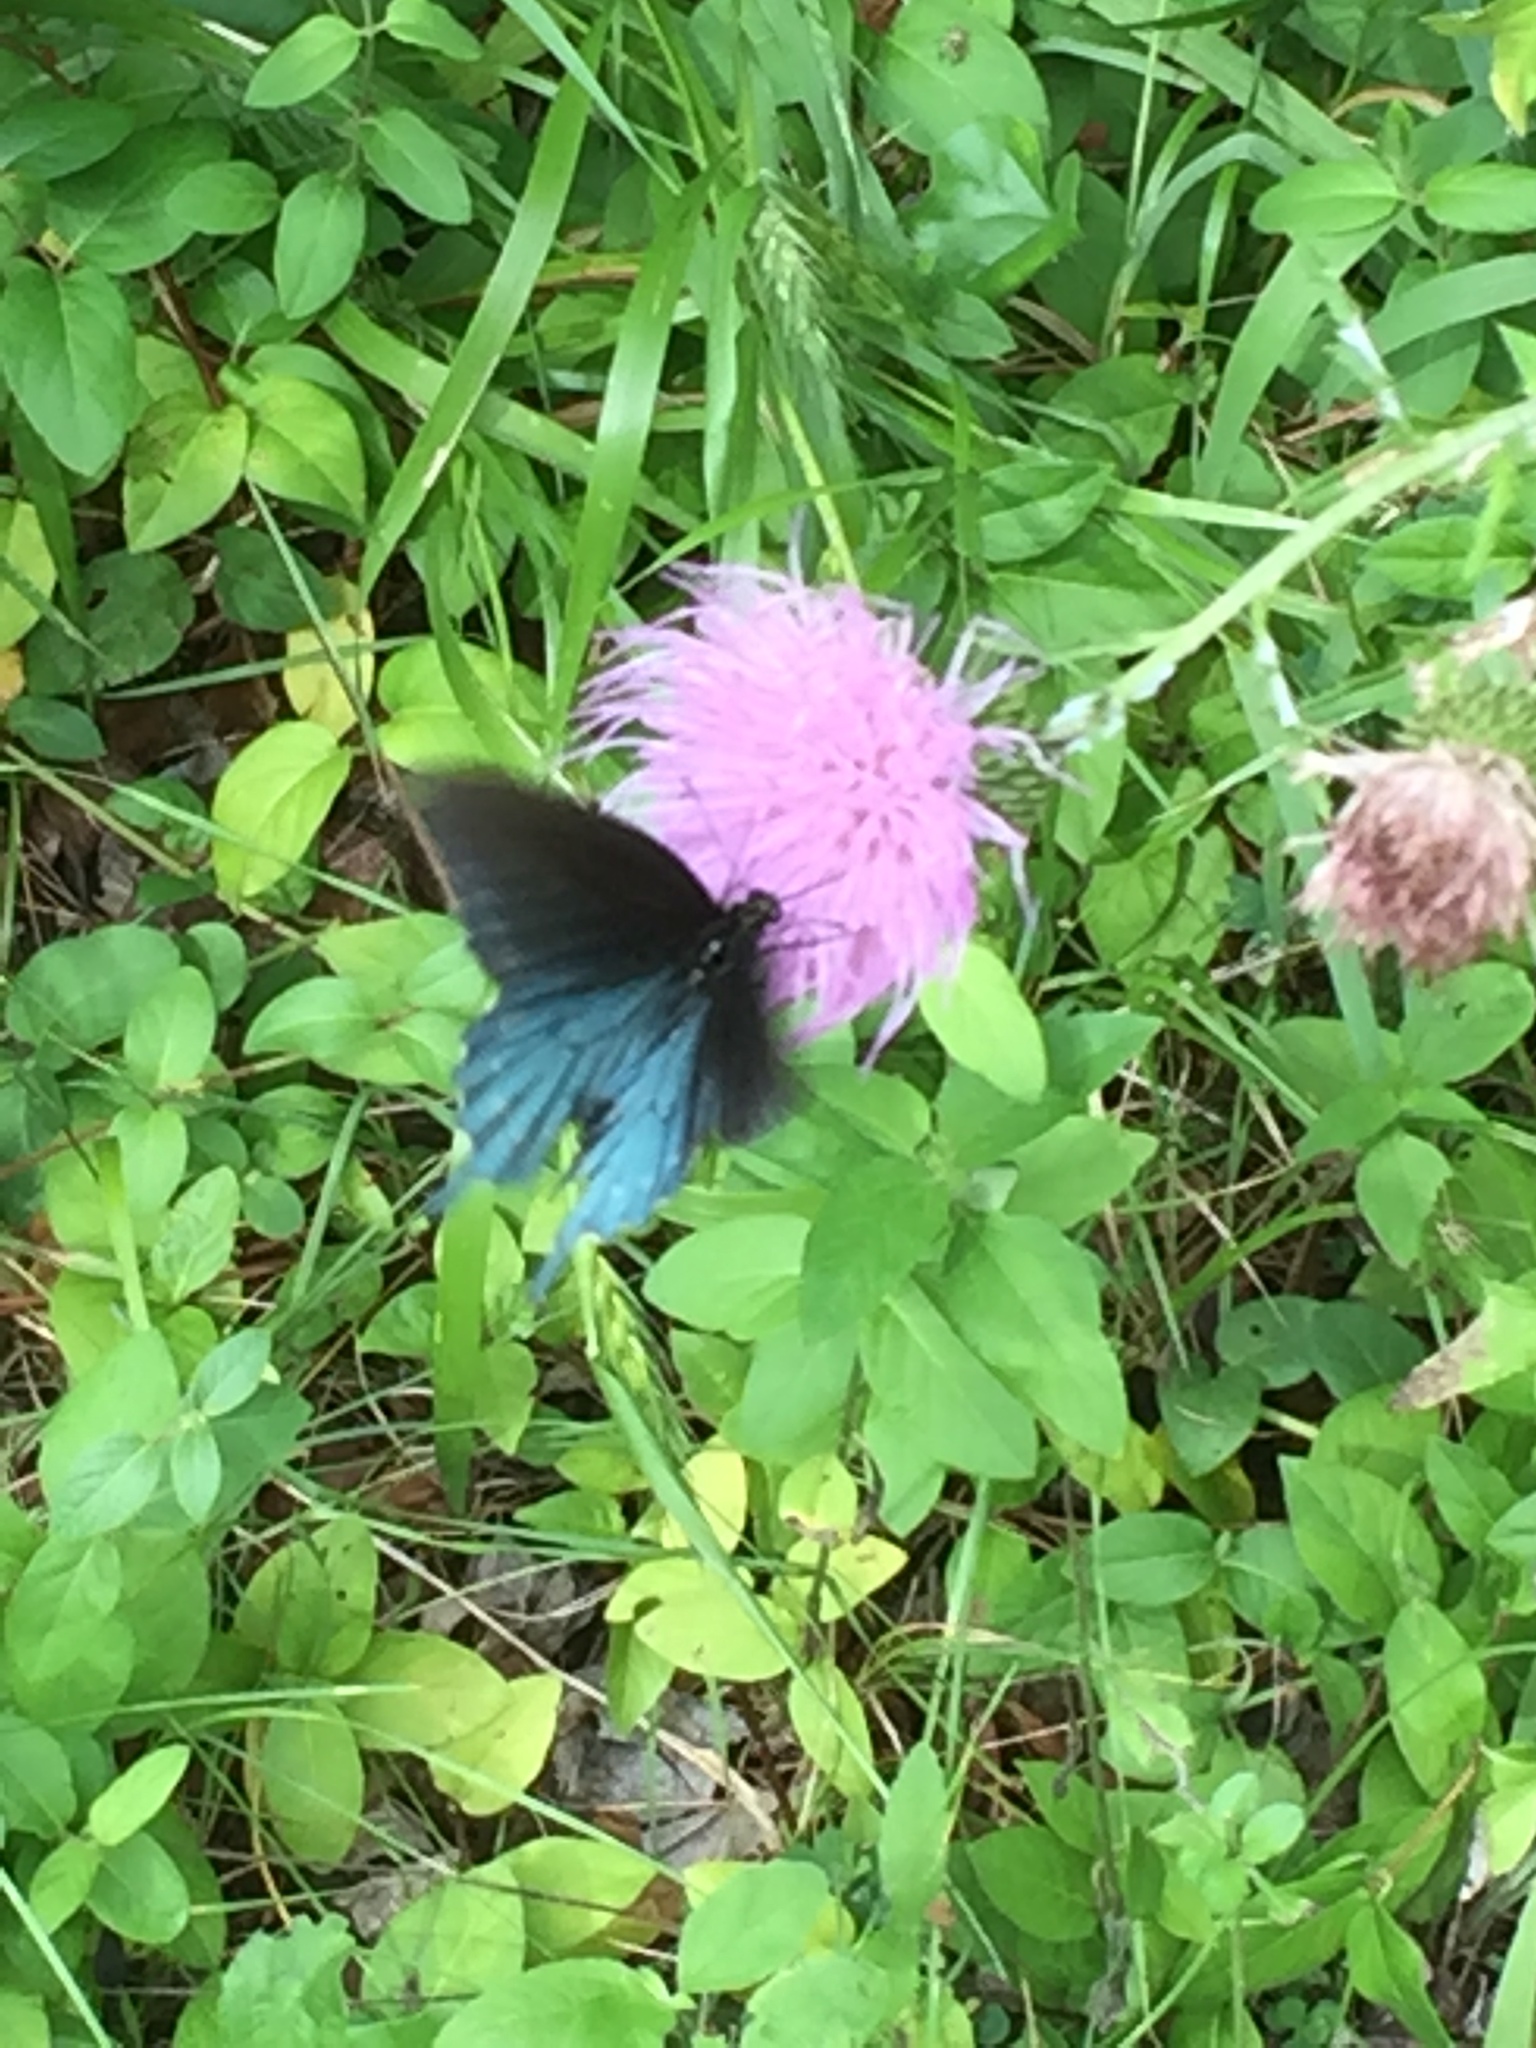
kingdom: Animalia
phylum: Arthropoda
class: Insecta
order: Lepidoptera
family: Papilionidae
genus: Battus
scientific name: Battus philenor
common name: Pipevine swallowtail
